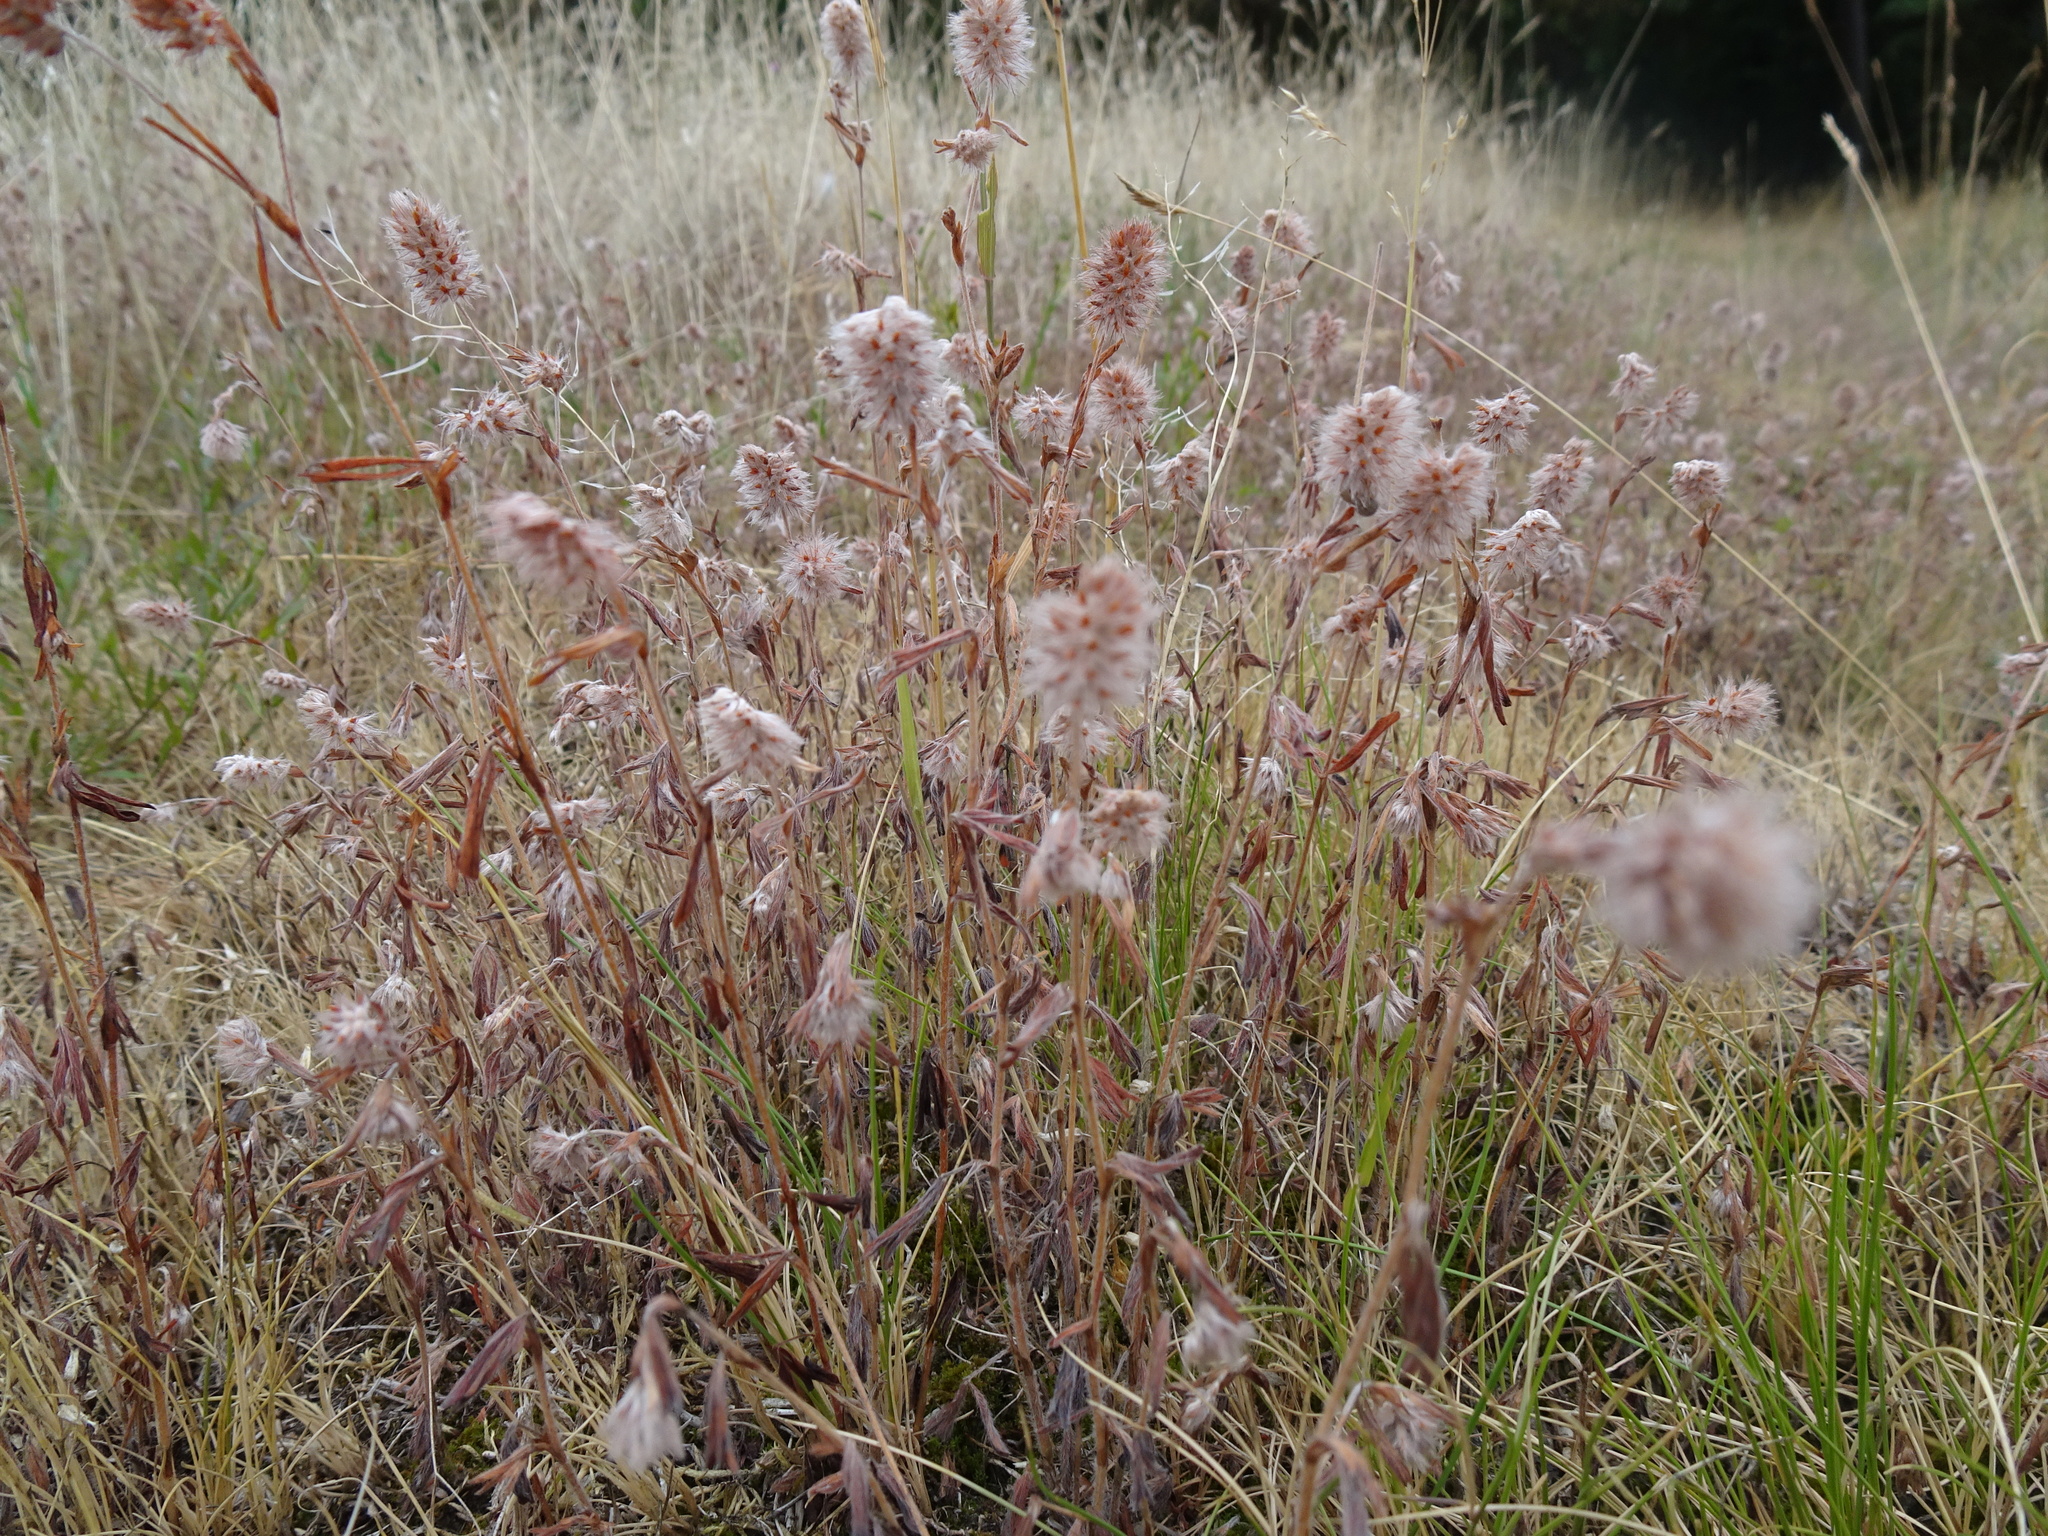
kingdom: Plantae
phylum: Tracheophyta
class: Magnoliopsida
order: Fabales
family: Fabaceae
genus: Trifolium
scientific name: Trifolium arvense
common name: Hare's-foot clover
